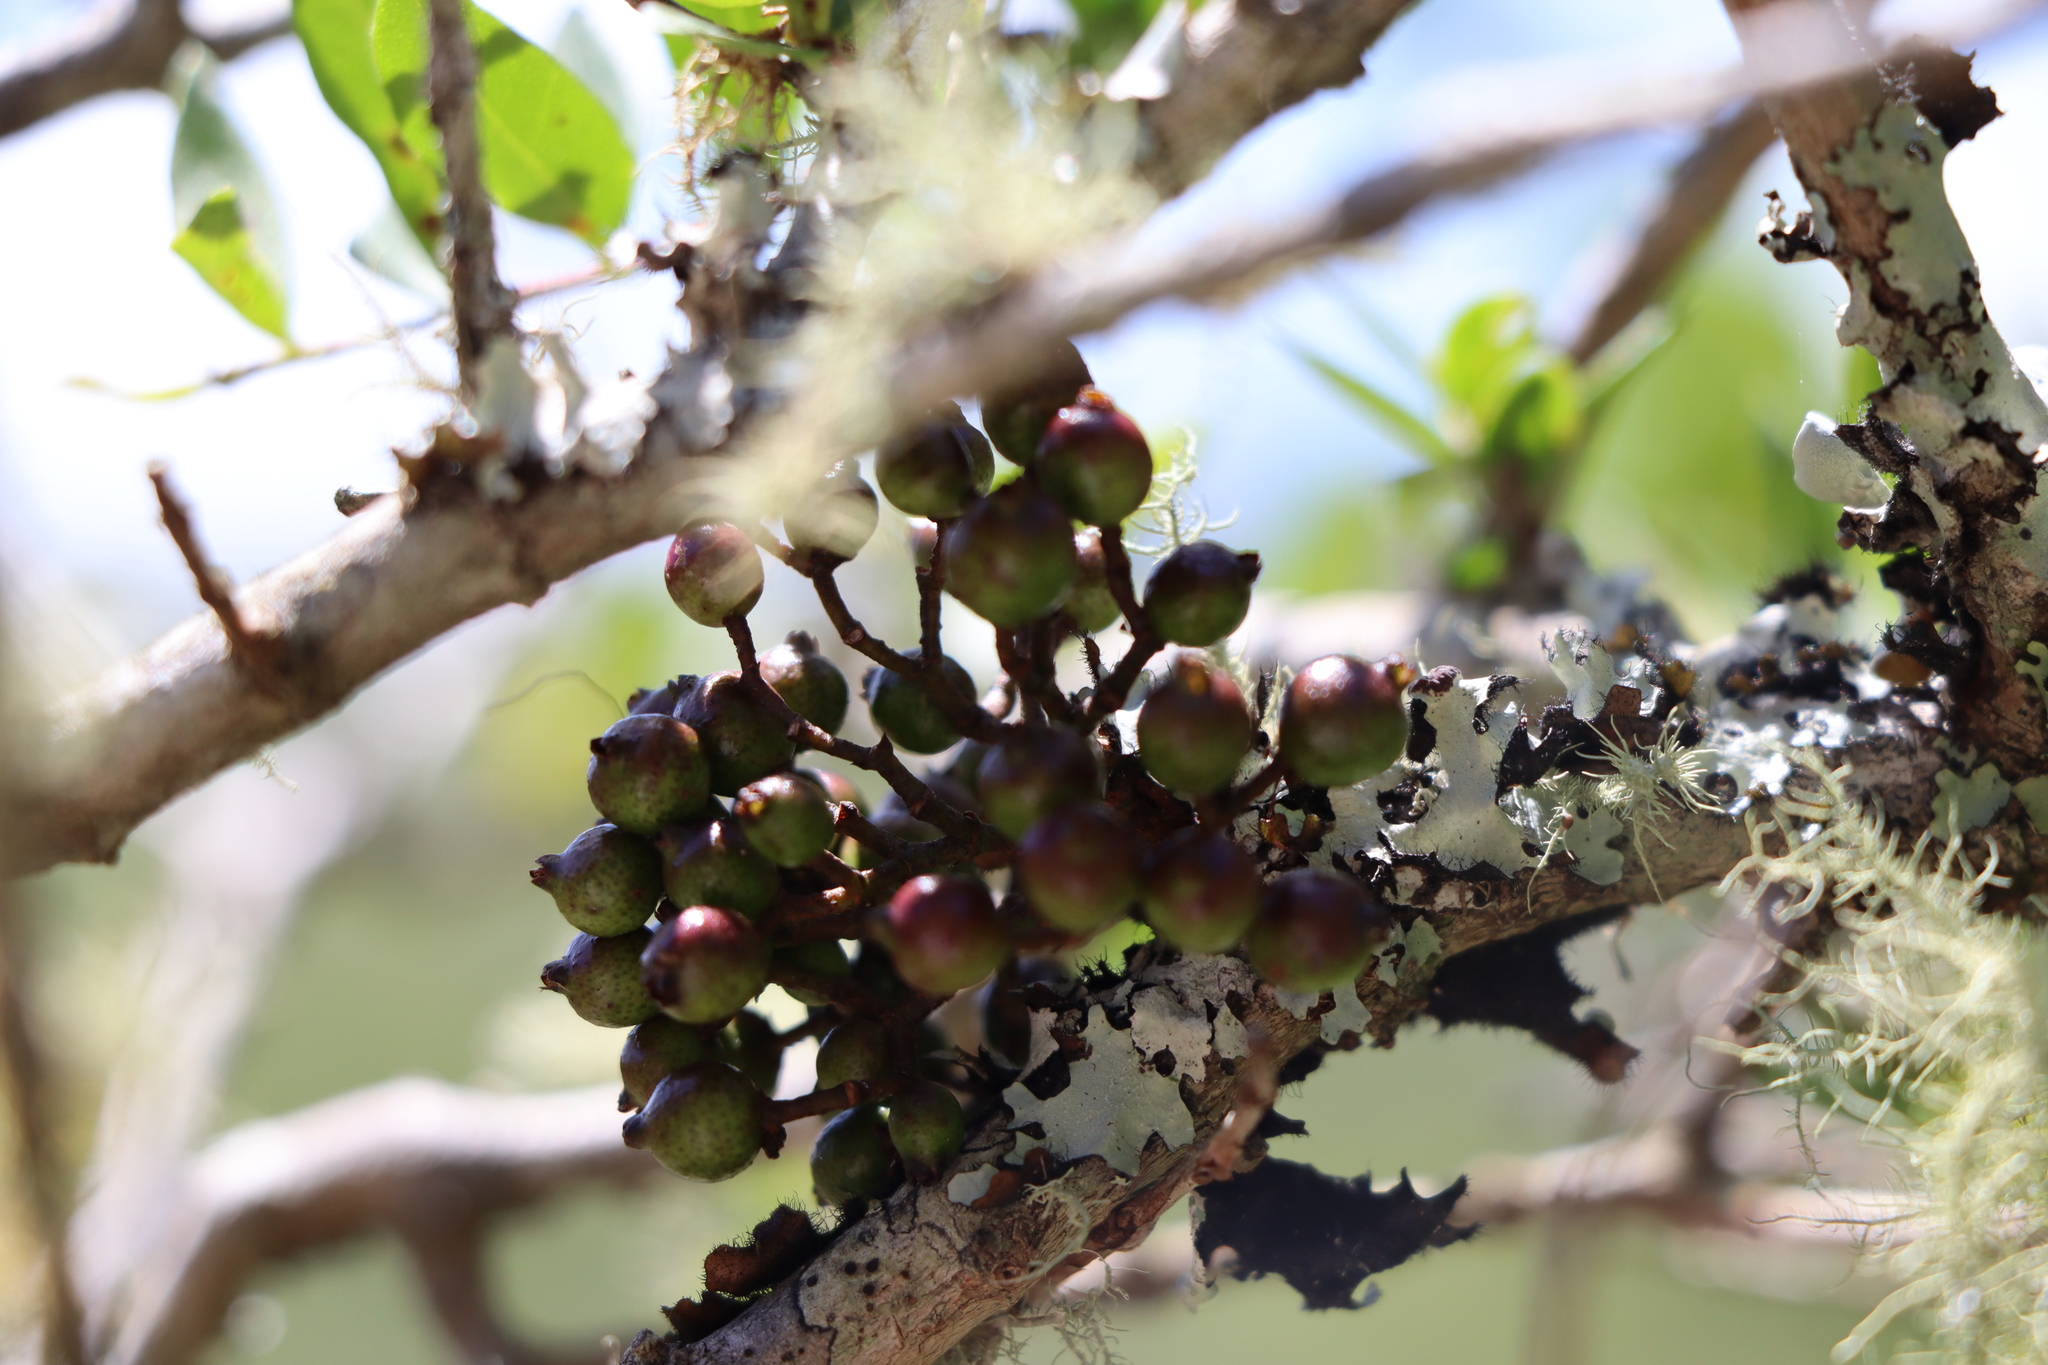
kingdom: Plantae
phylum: Tracheophyta
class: Magnoliopsida
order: Myrtales
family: Myrtaceae
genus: Myrrhinium
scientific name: Myrrhinium atropurpureum
